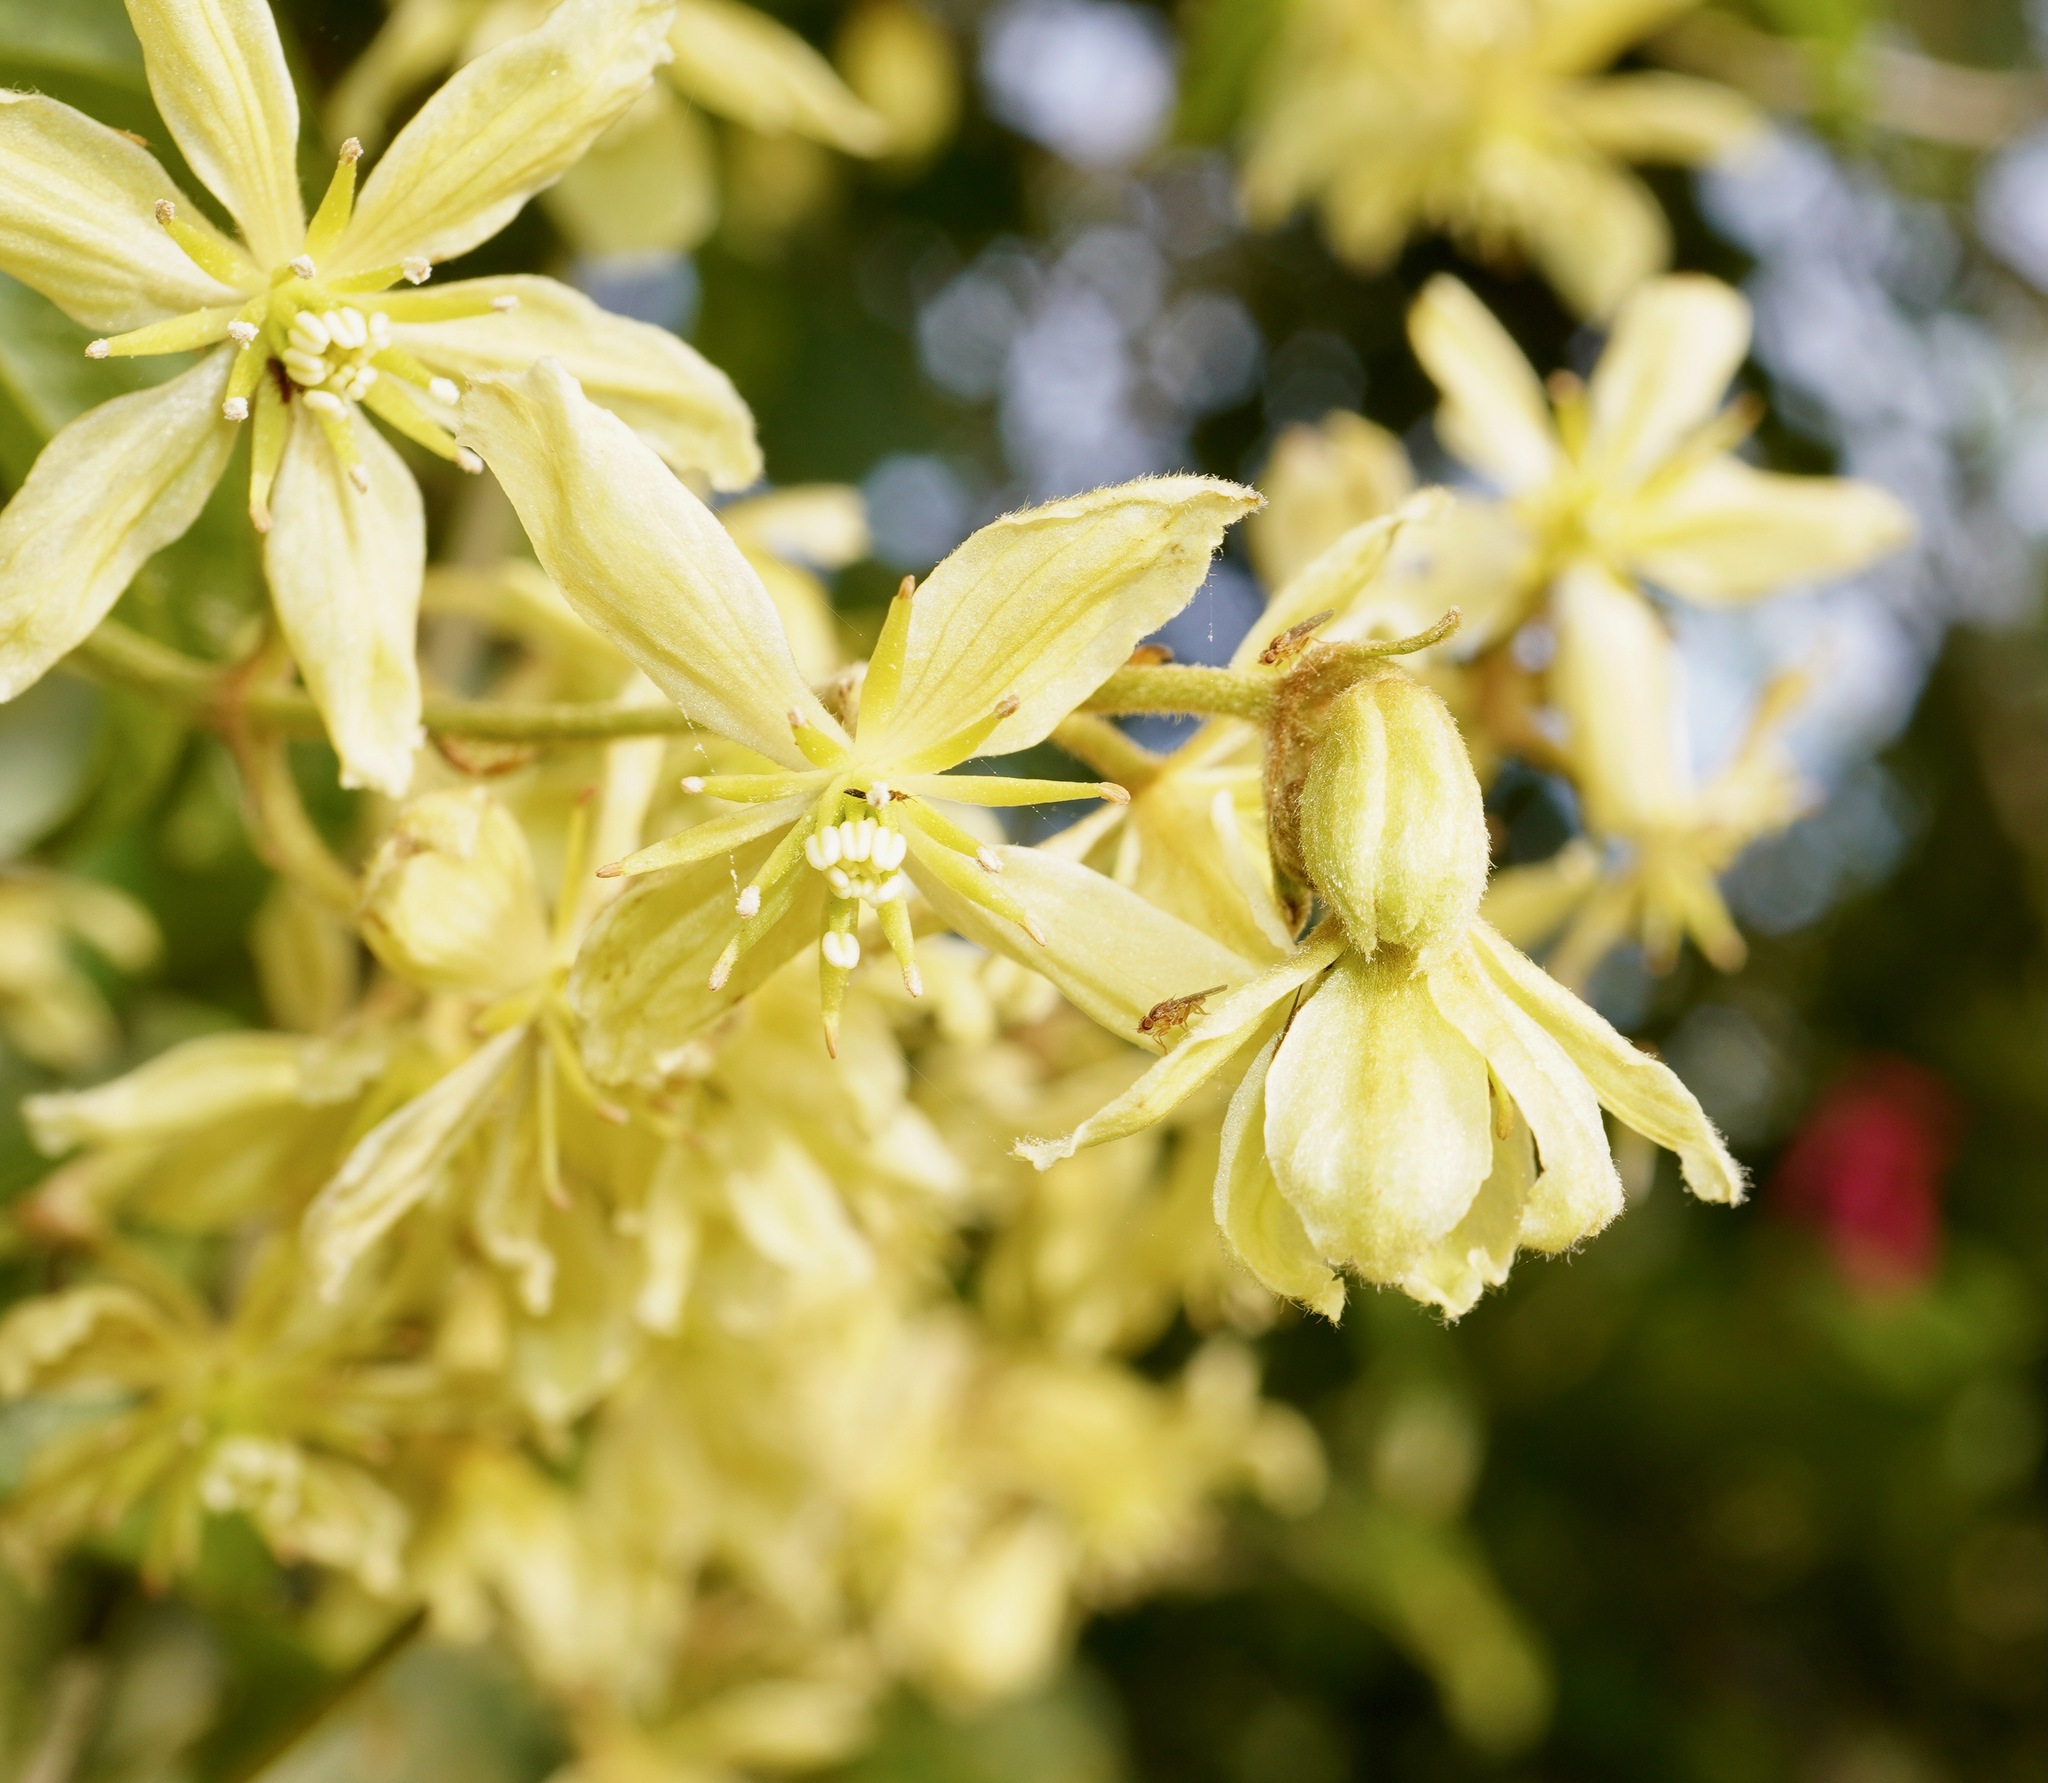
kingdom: Plantae
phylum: Tracheophyta
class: Magnoliopsida
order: Ranunculales
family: Ranunculaceae
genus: Clematis
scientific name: Clematis foetida
